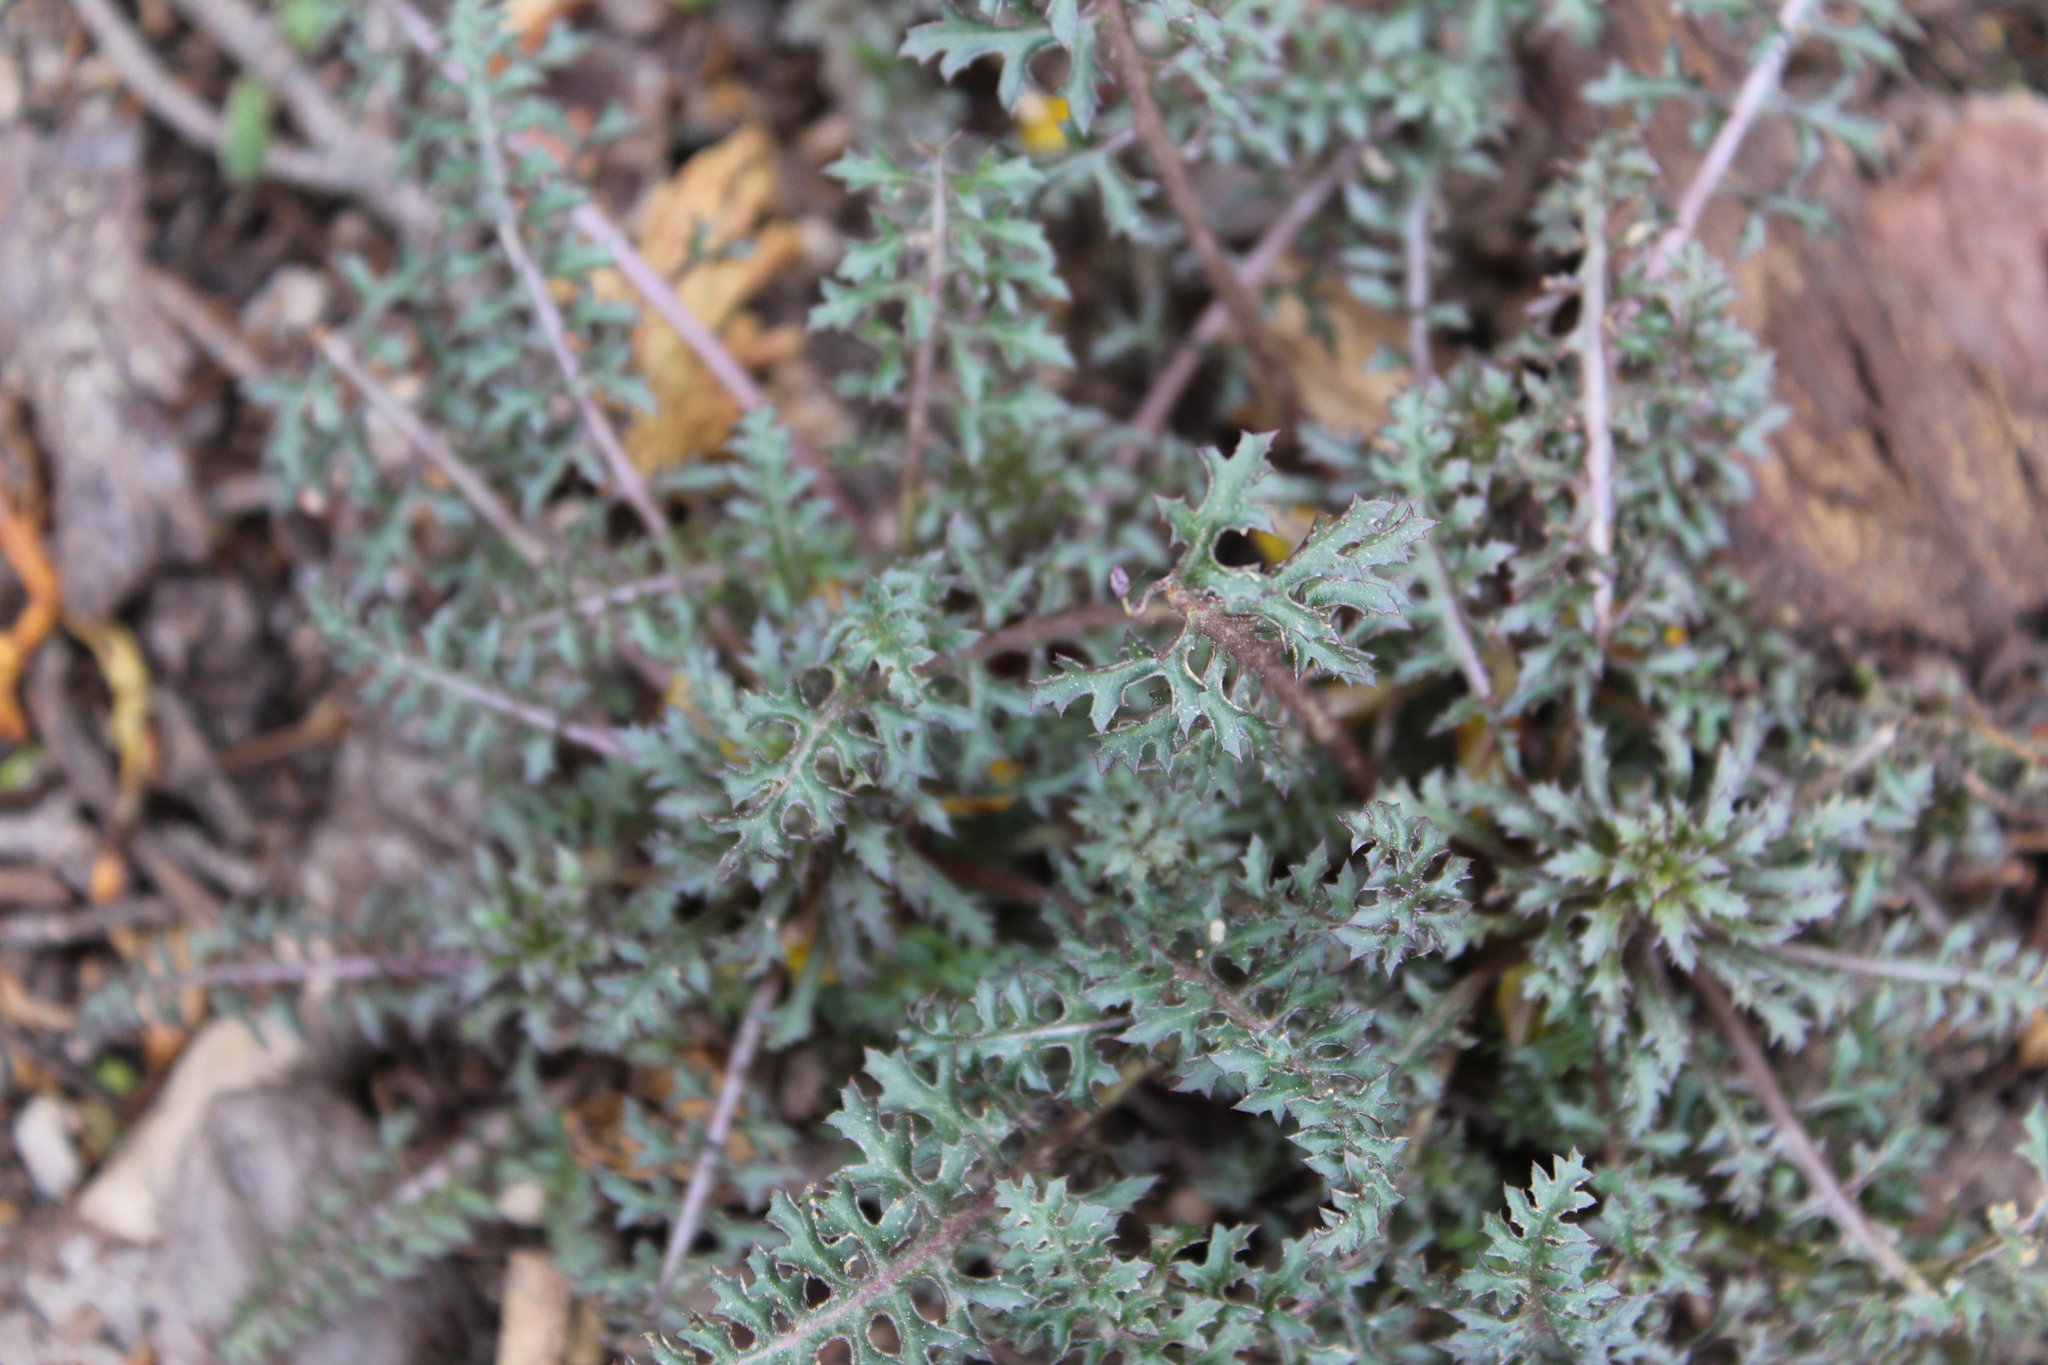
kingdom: Plantae
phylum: Tracheophyta
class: Magnoliopsida
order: Lamiales
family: Orobanchaceae
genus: Pedicularis
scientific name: Pedicularis semibarbata
